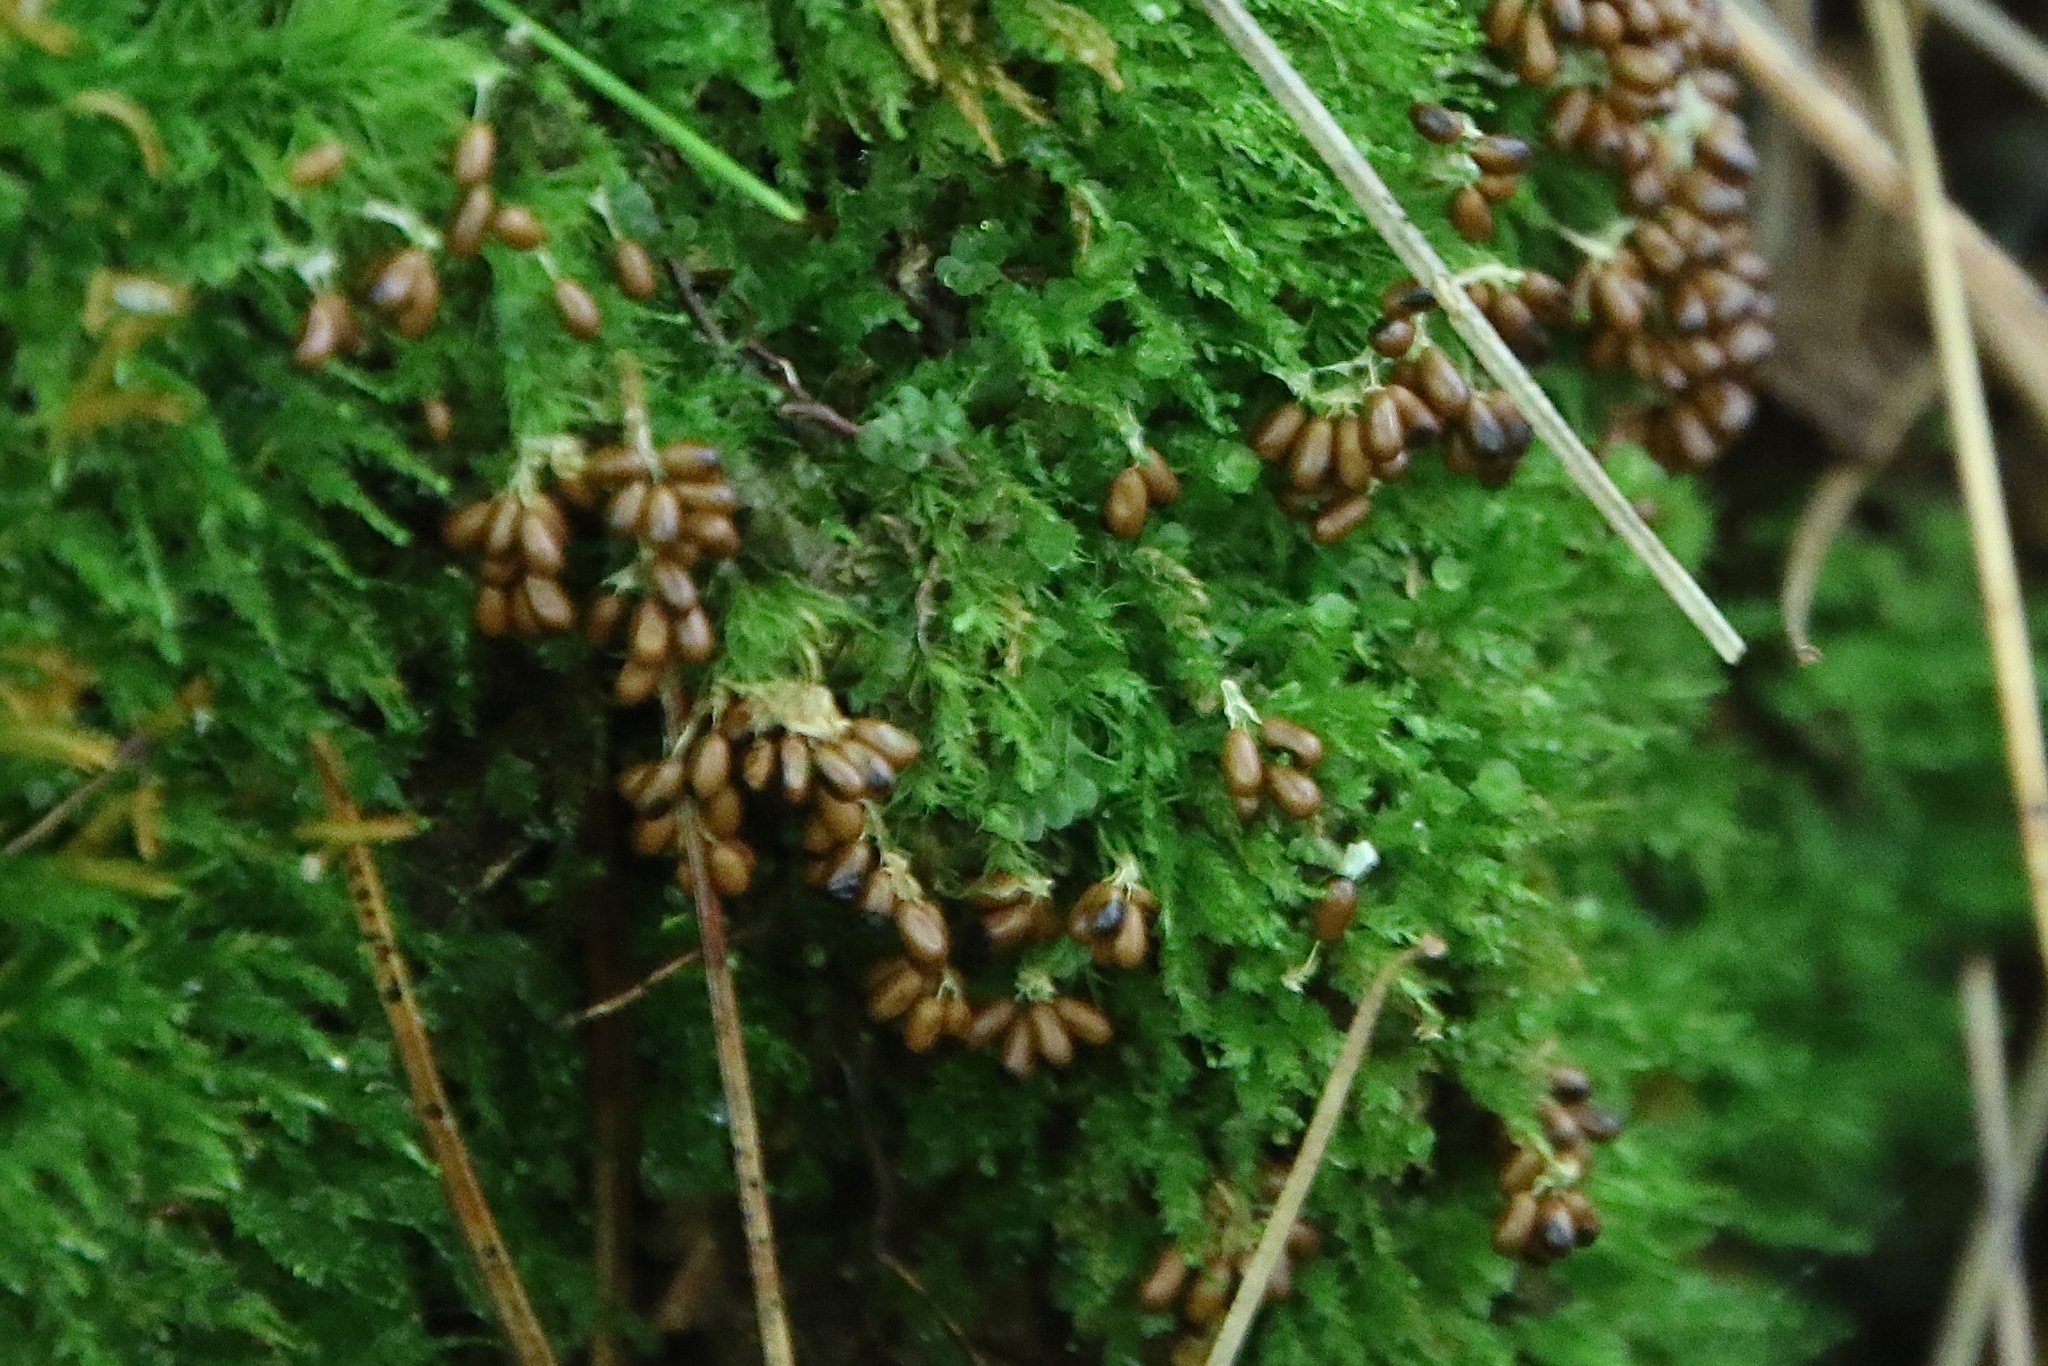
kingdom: Protozoa
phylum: Mycetozoa
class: Myxomycetes
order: Physarales
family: Physaraceae
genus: Leocarpus
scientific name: Leocarpus fragilis
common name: Insect-egg slime
